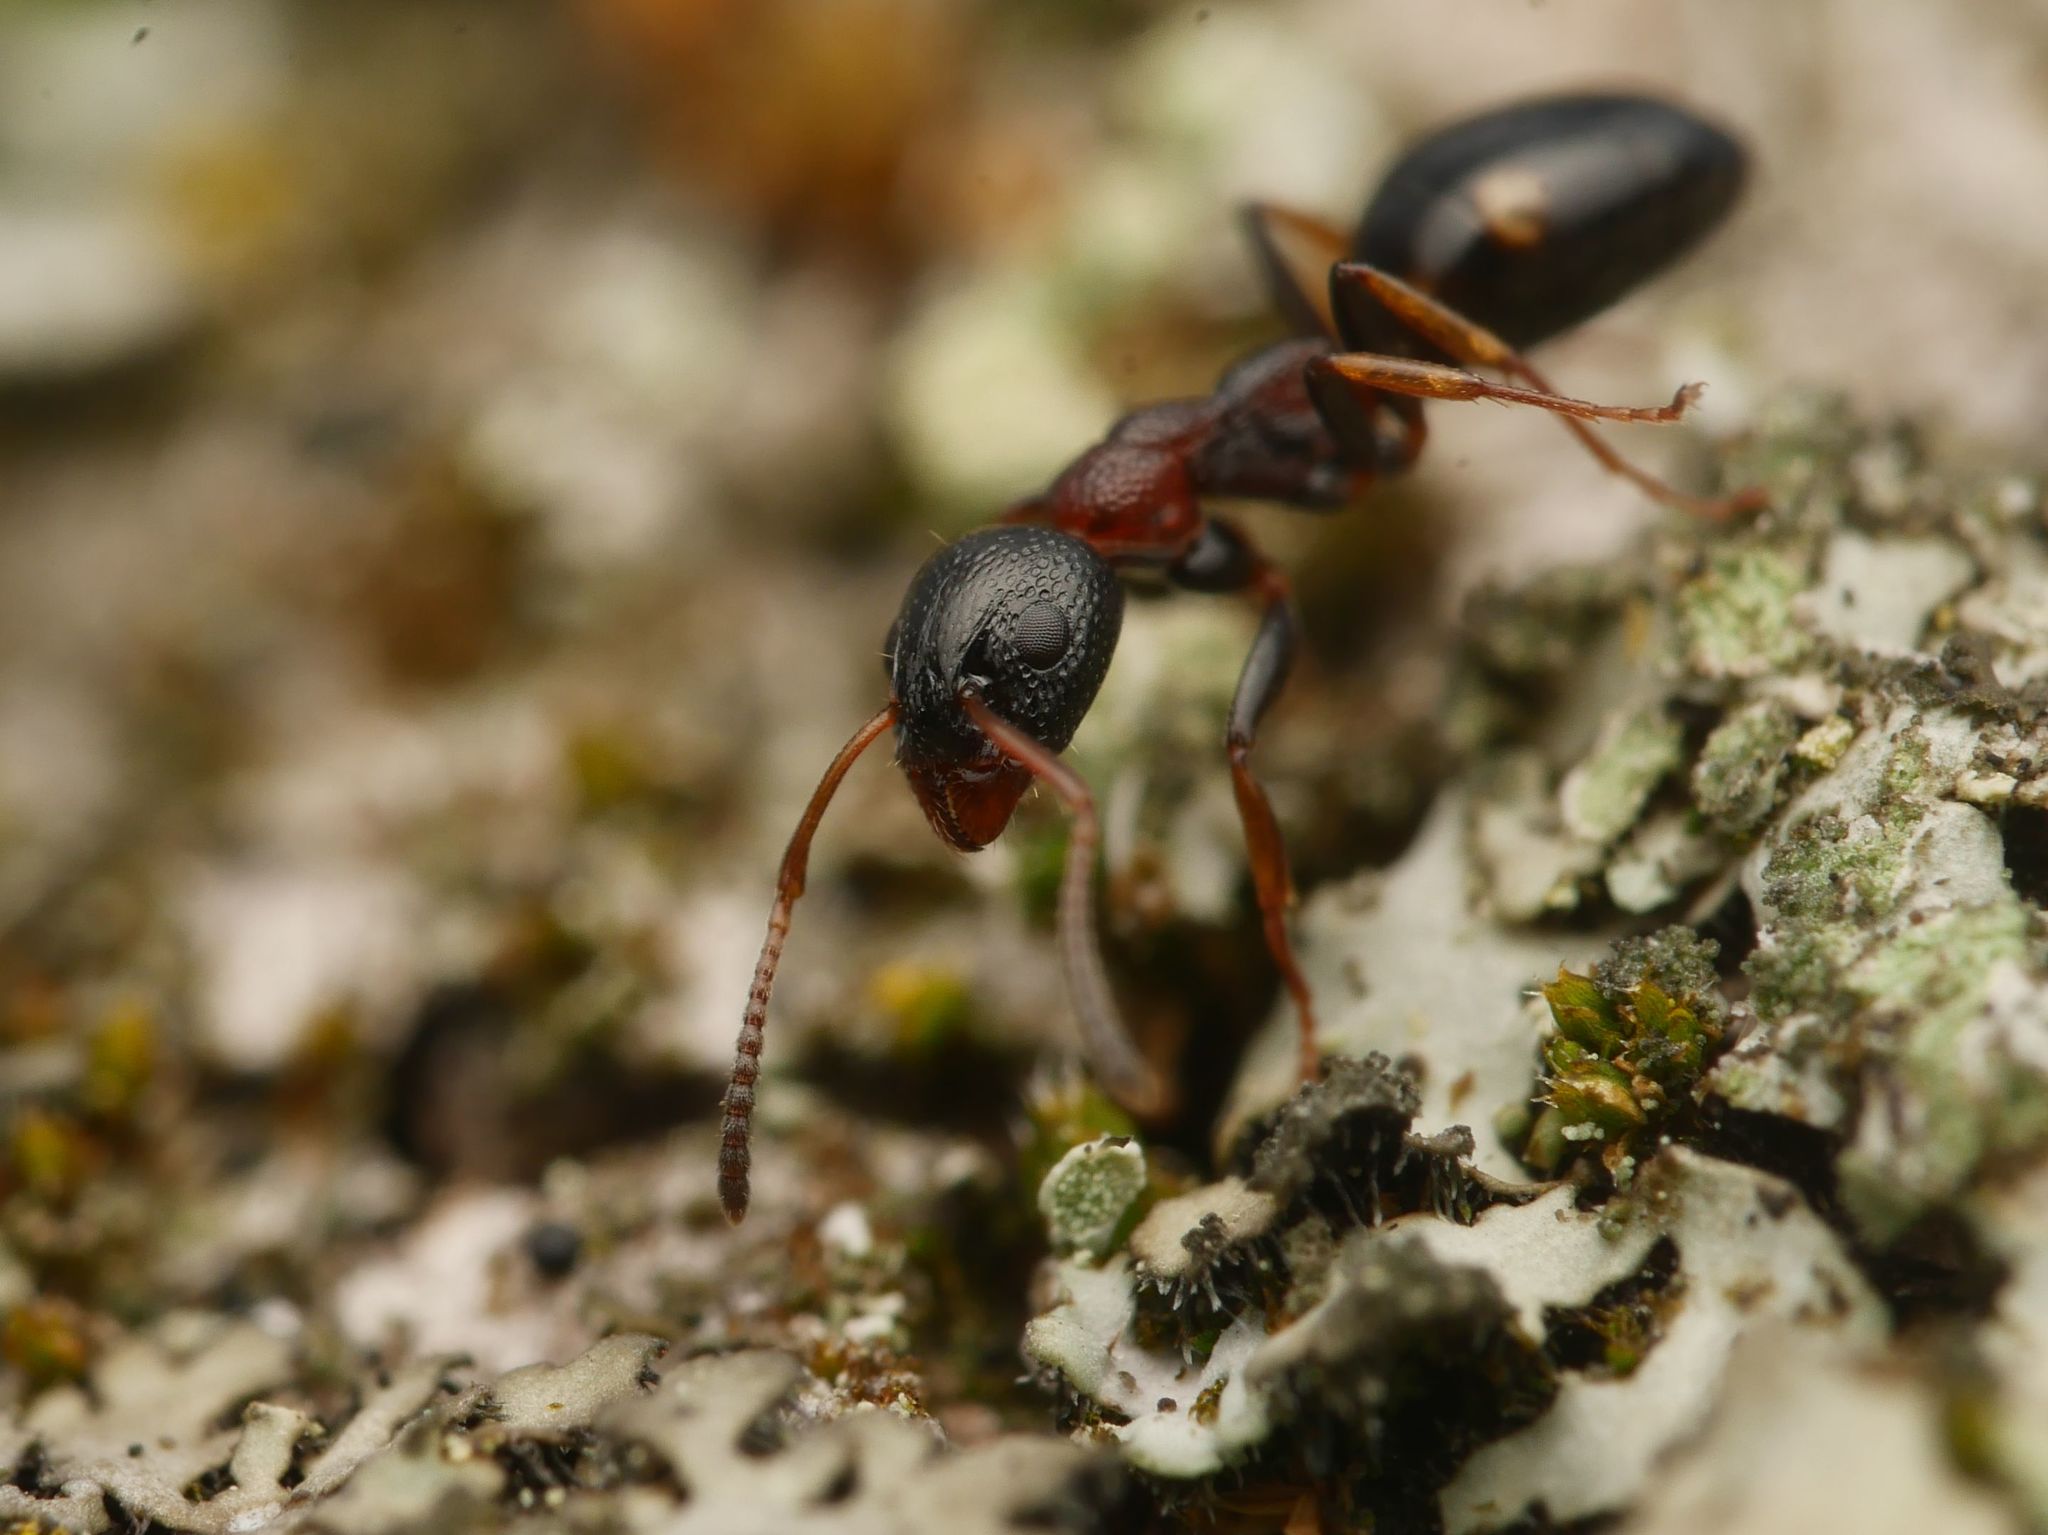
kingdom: Animalia
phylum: Arthropoda
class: Insecta
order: Hymenoptera
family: Formicidae
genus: Dolichoderus
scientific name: Dolichoderus quadripunctatus
